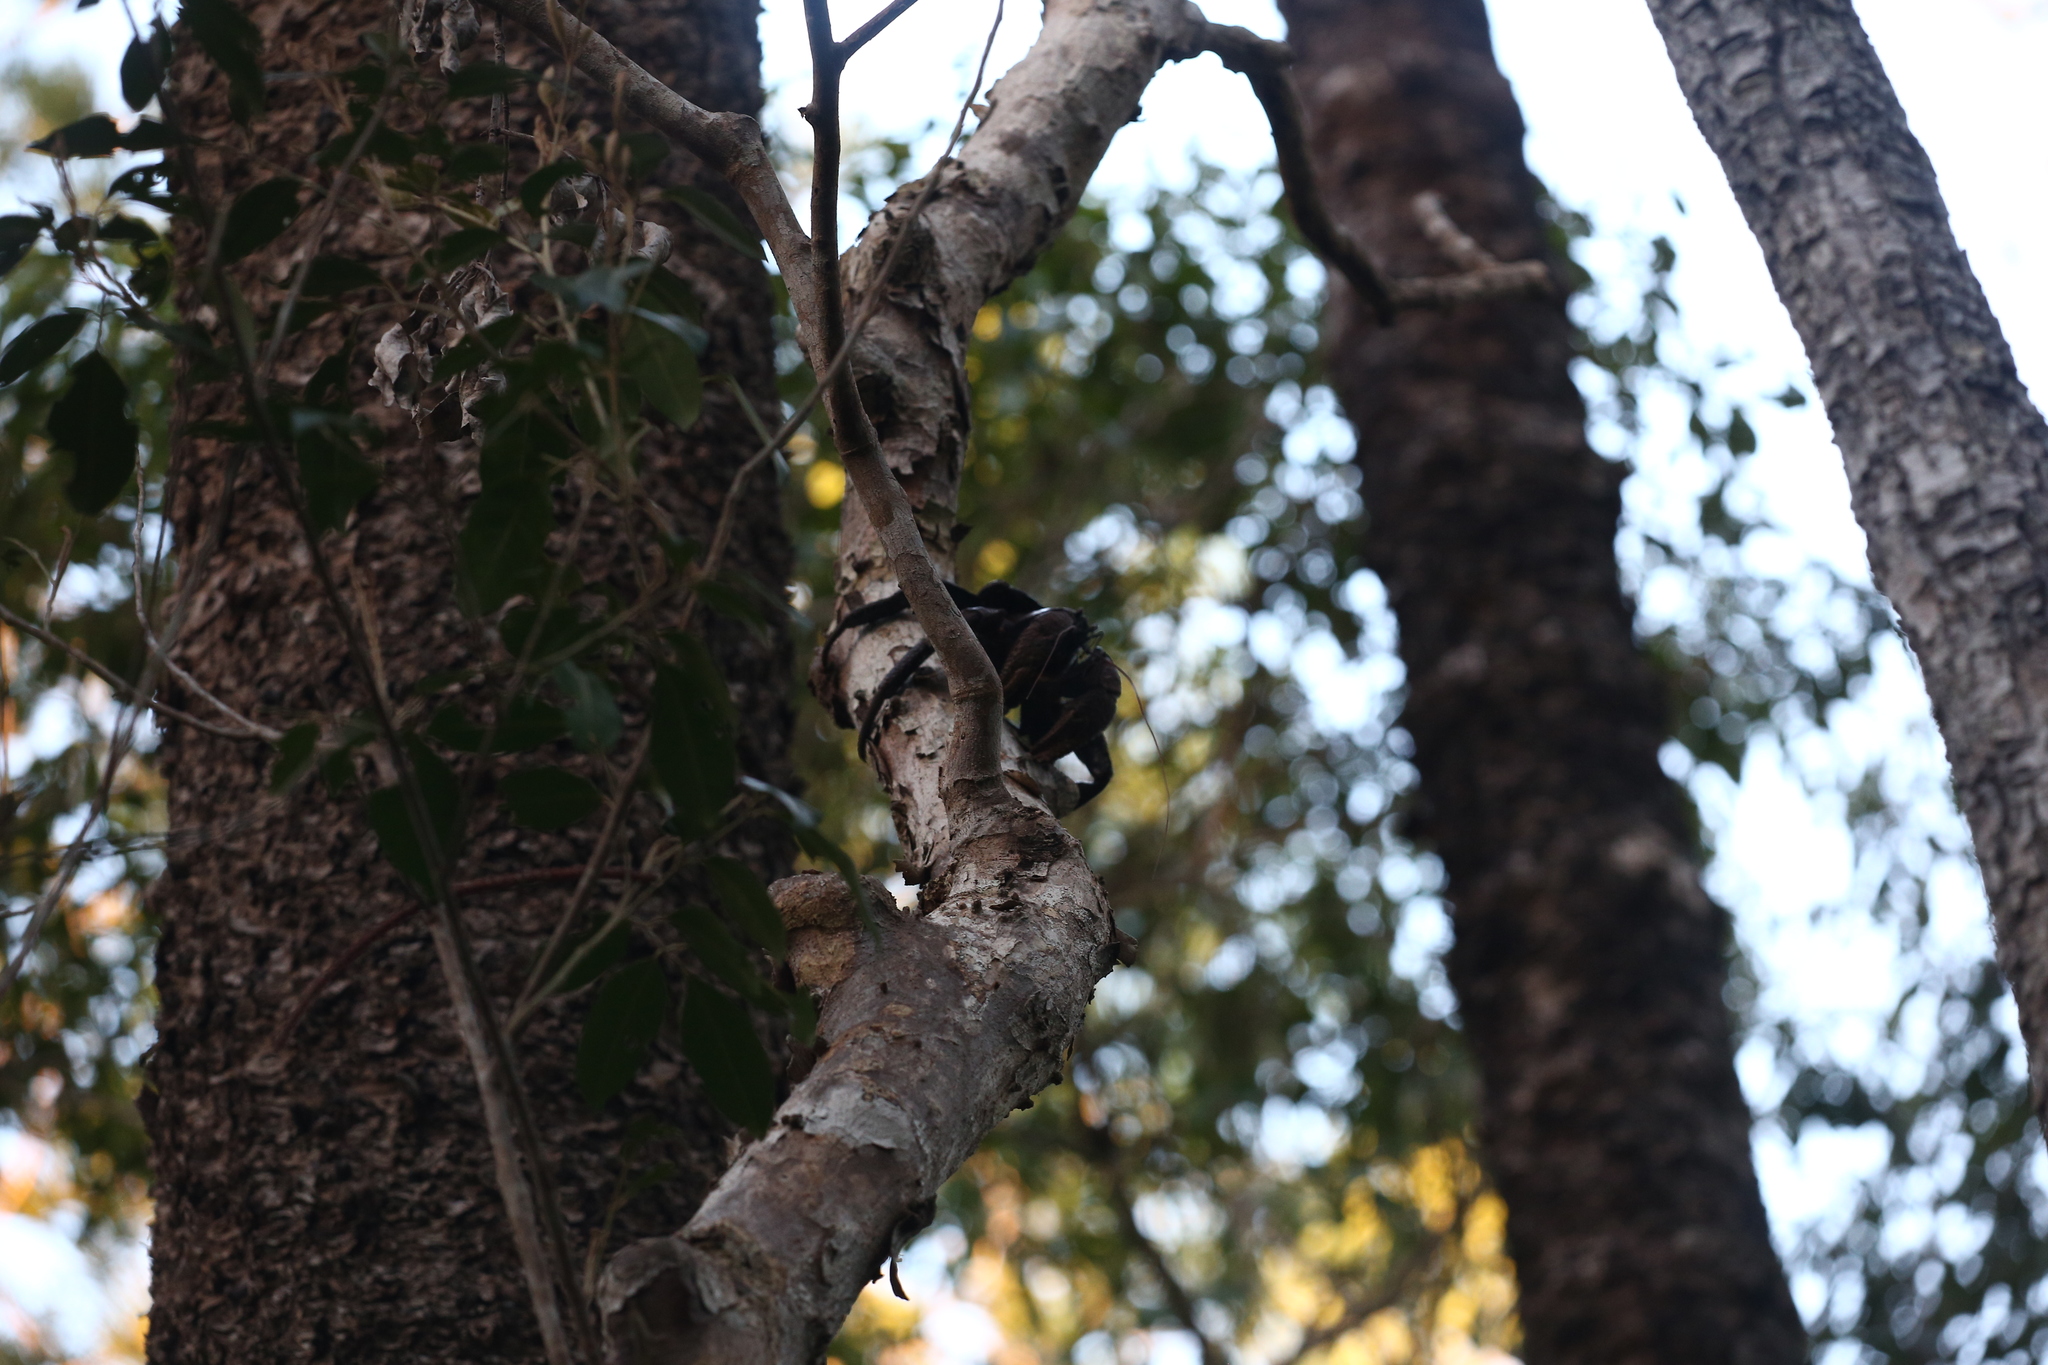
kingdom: Animalia
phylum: Arthropoda
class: Malacostraca
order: Decapoda
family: Coenobitidae
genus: Birgus
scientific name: Birgus latro
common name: Coconut crab
